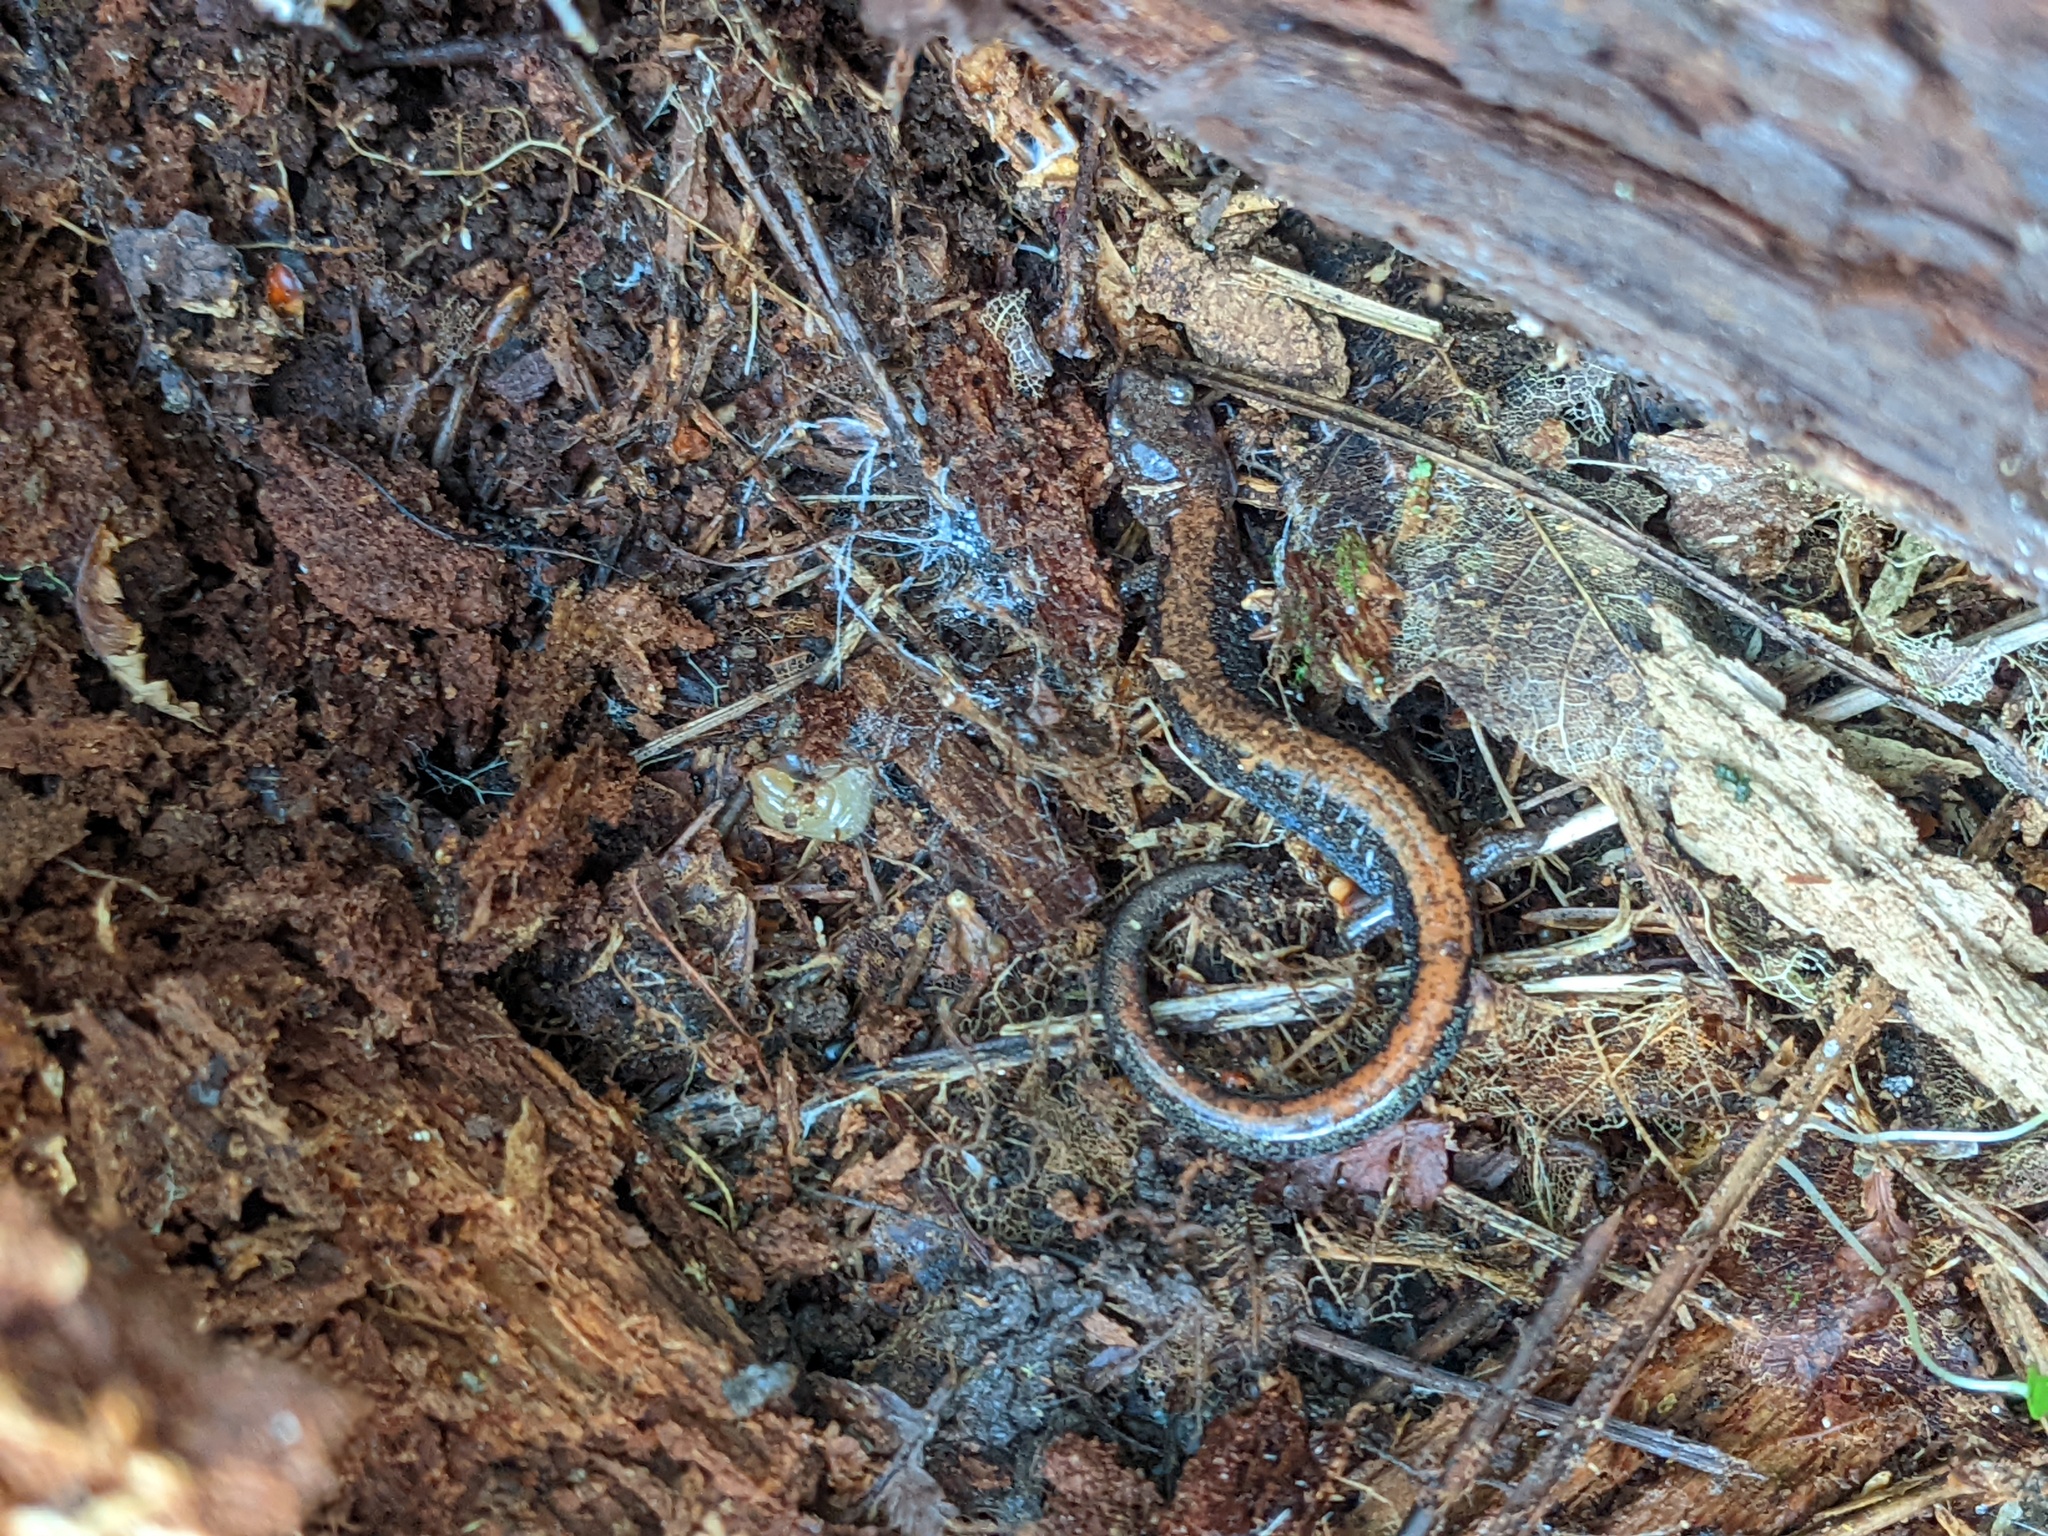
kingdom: Animalia
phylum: Chordata
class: Amphibia
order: Caudata
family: Plethodontidae
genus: Plethodon
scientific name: Plethodon cinereus
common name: Redback salamander
